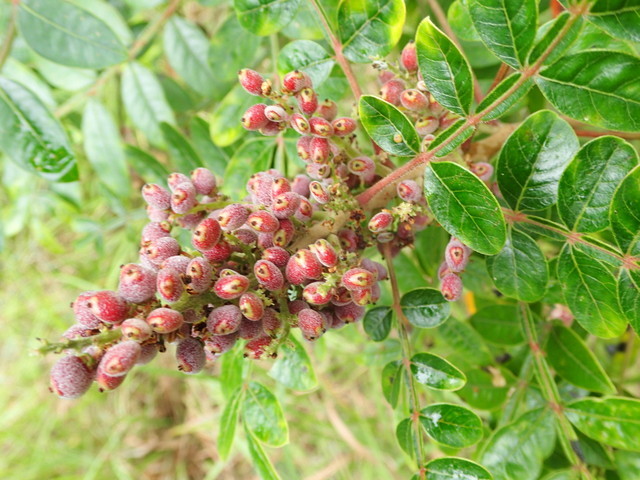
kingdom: Plantae
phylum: Tracheophyta
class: Magnoliopsida
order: Sapindales
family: Anacardiaceae
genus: Rhus
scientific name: Rhus copallina
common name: Shining sumac
